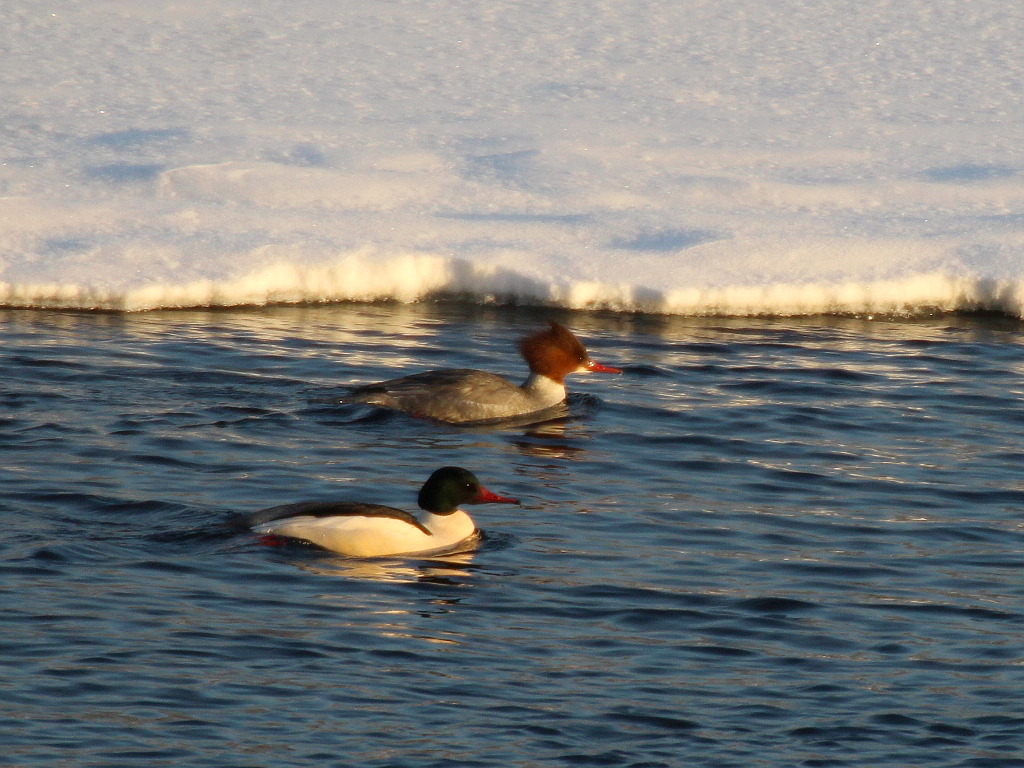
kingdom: Animalia
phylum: Chordata
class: Aves
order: Anseriformes
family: Anatidae
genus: Mergus
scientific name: Mergus merganser
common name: Common merganser
